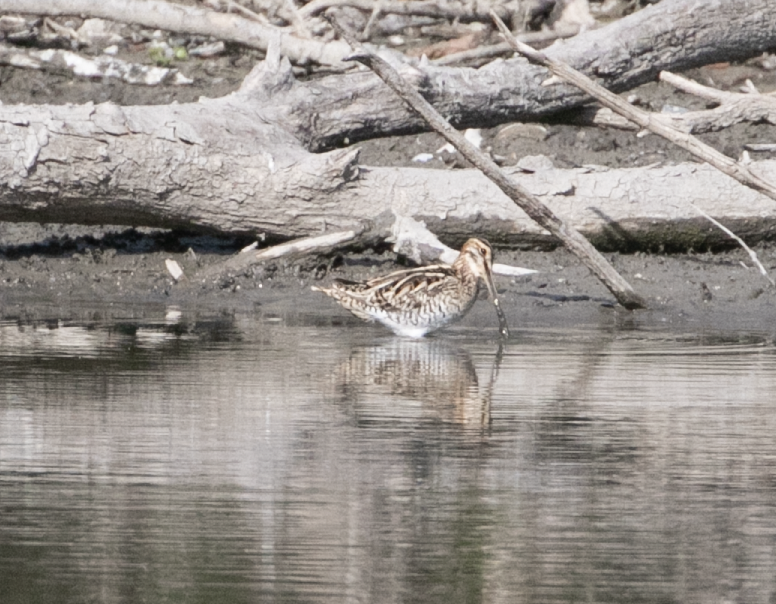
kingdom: Animalia
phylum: Chordata
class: Aves
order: Charadriiformes
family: Scolopacidae
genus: Gallinago
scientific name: Gallinago gallinago
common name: Common snipe
